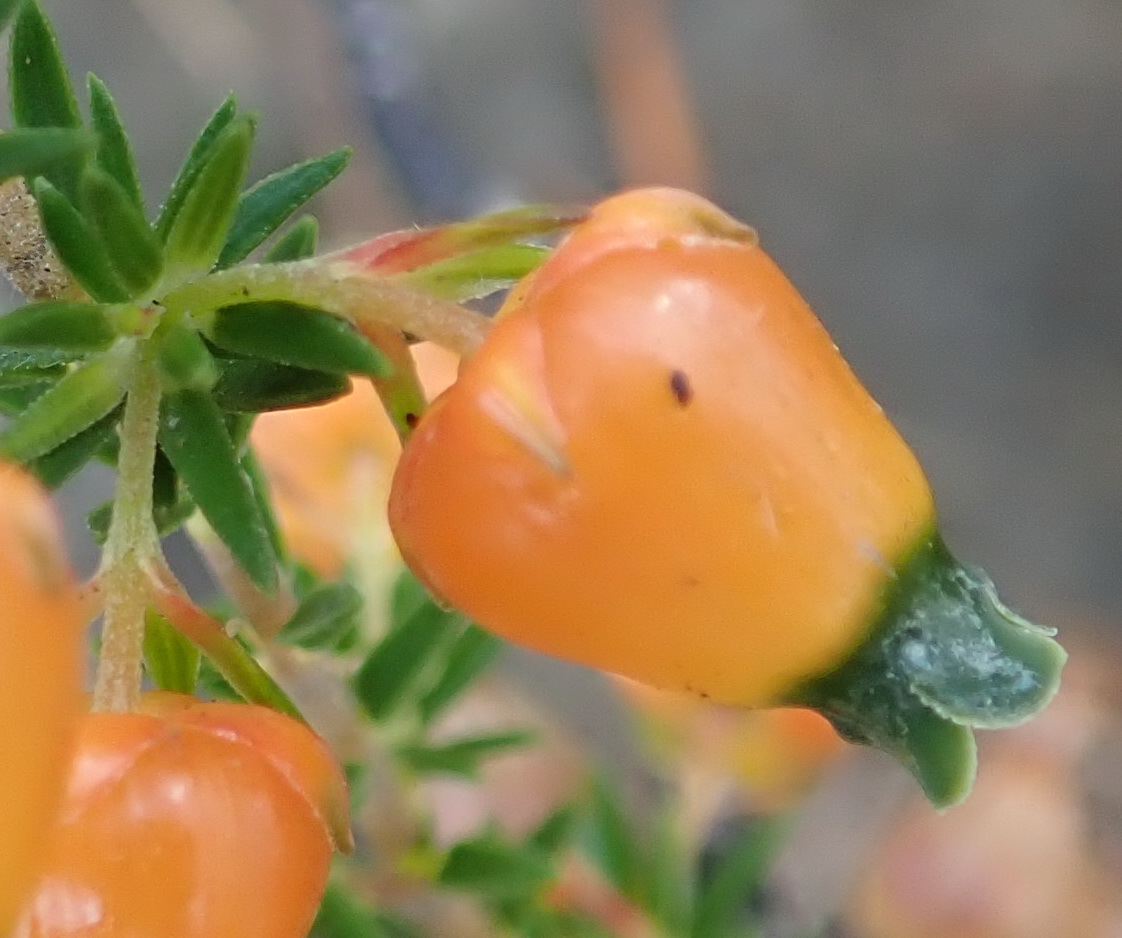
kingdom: Plantae
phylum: Tracheophyta
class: Magnoliopsida
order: Ericales
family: Ericaceae
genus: Erica
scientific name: Erica blenna
